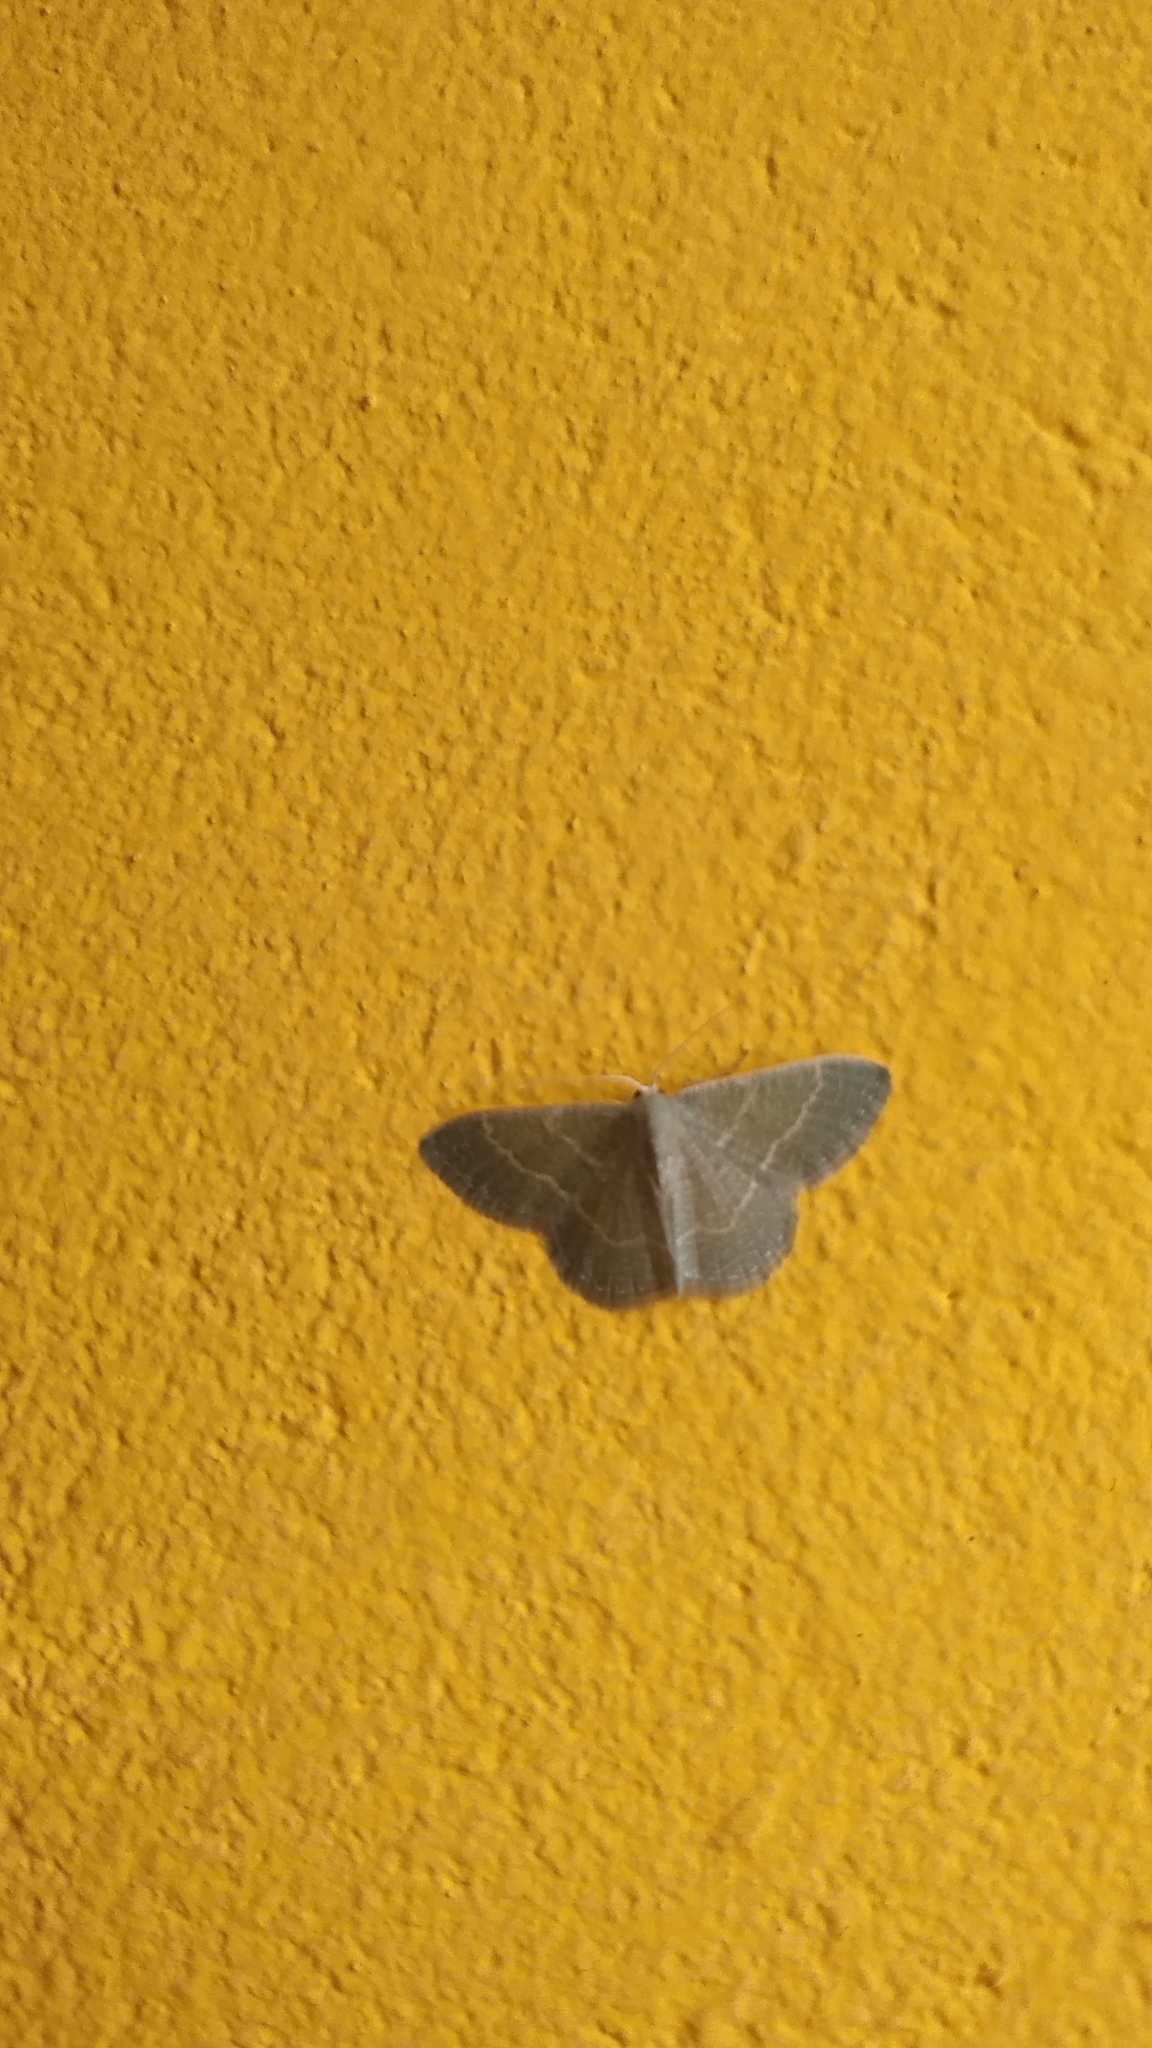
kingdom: Animalia
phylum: Arthropoda
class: Insecta
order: Lepidoptera
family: Geometridae
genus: Chlorissa
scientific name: Chlorissa etruscaria
